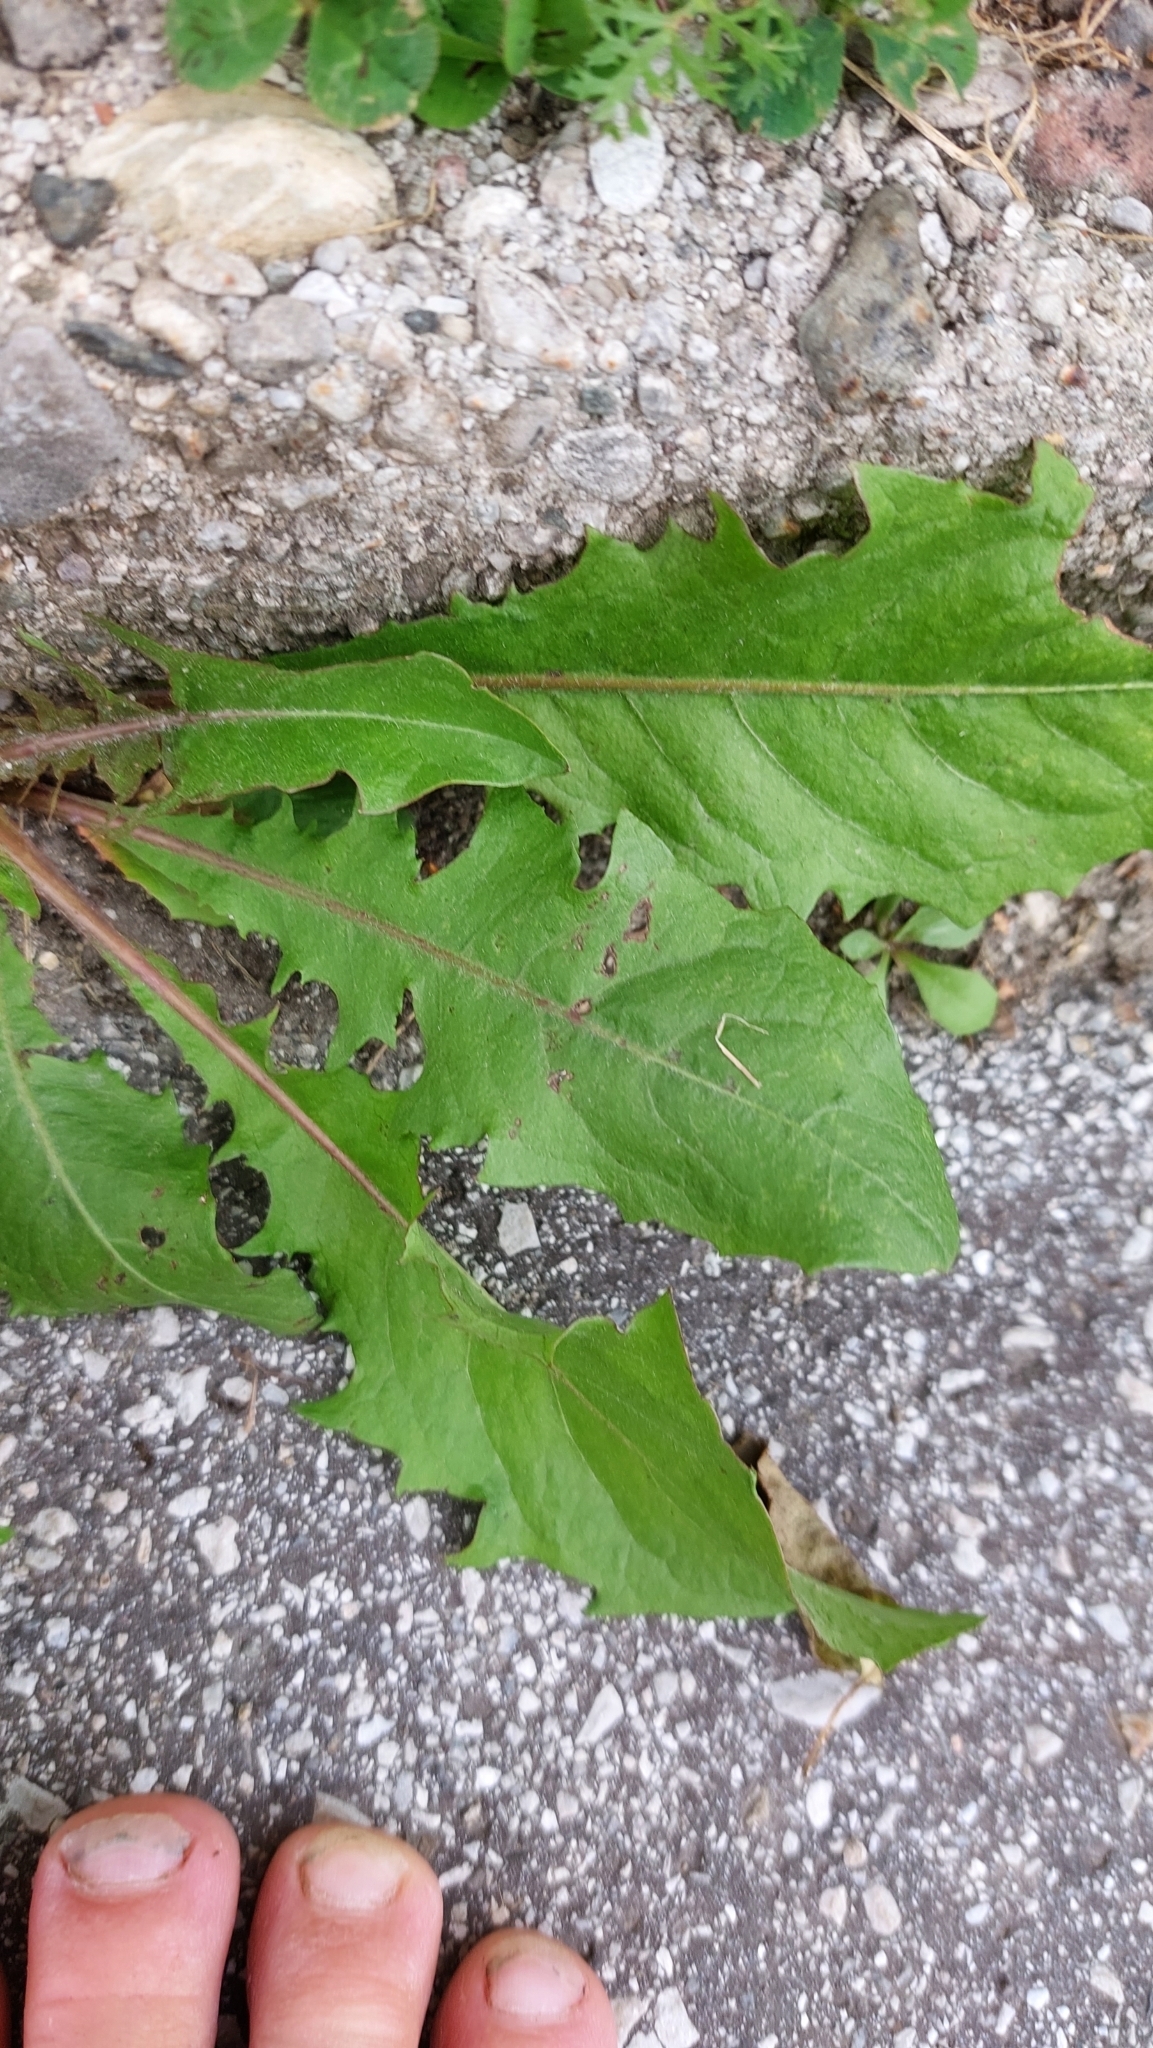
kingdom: Plantae
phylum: Tracheophyta
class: Magnoliopsida
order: Asterales
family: Asteraceae
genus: Taraxacum
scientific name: Taraxacum
